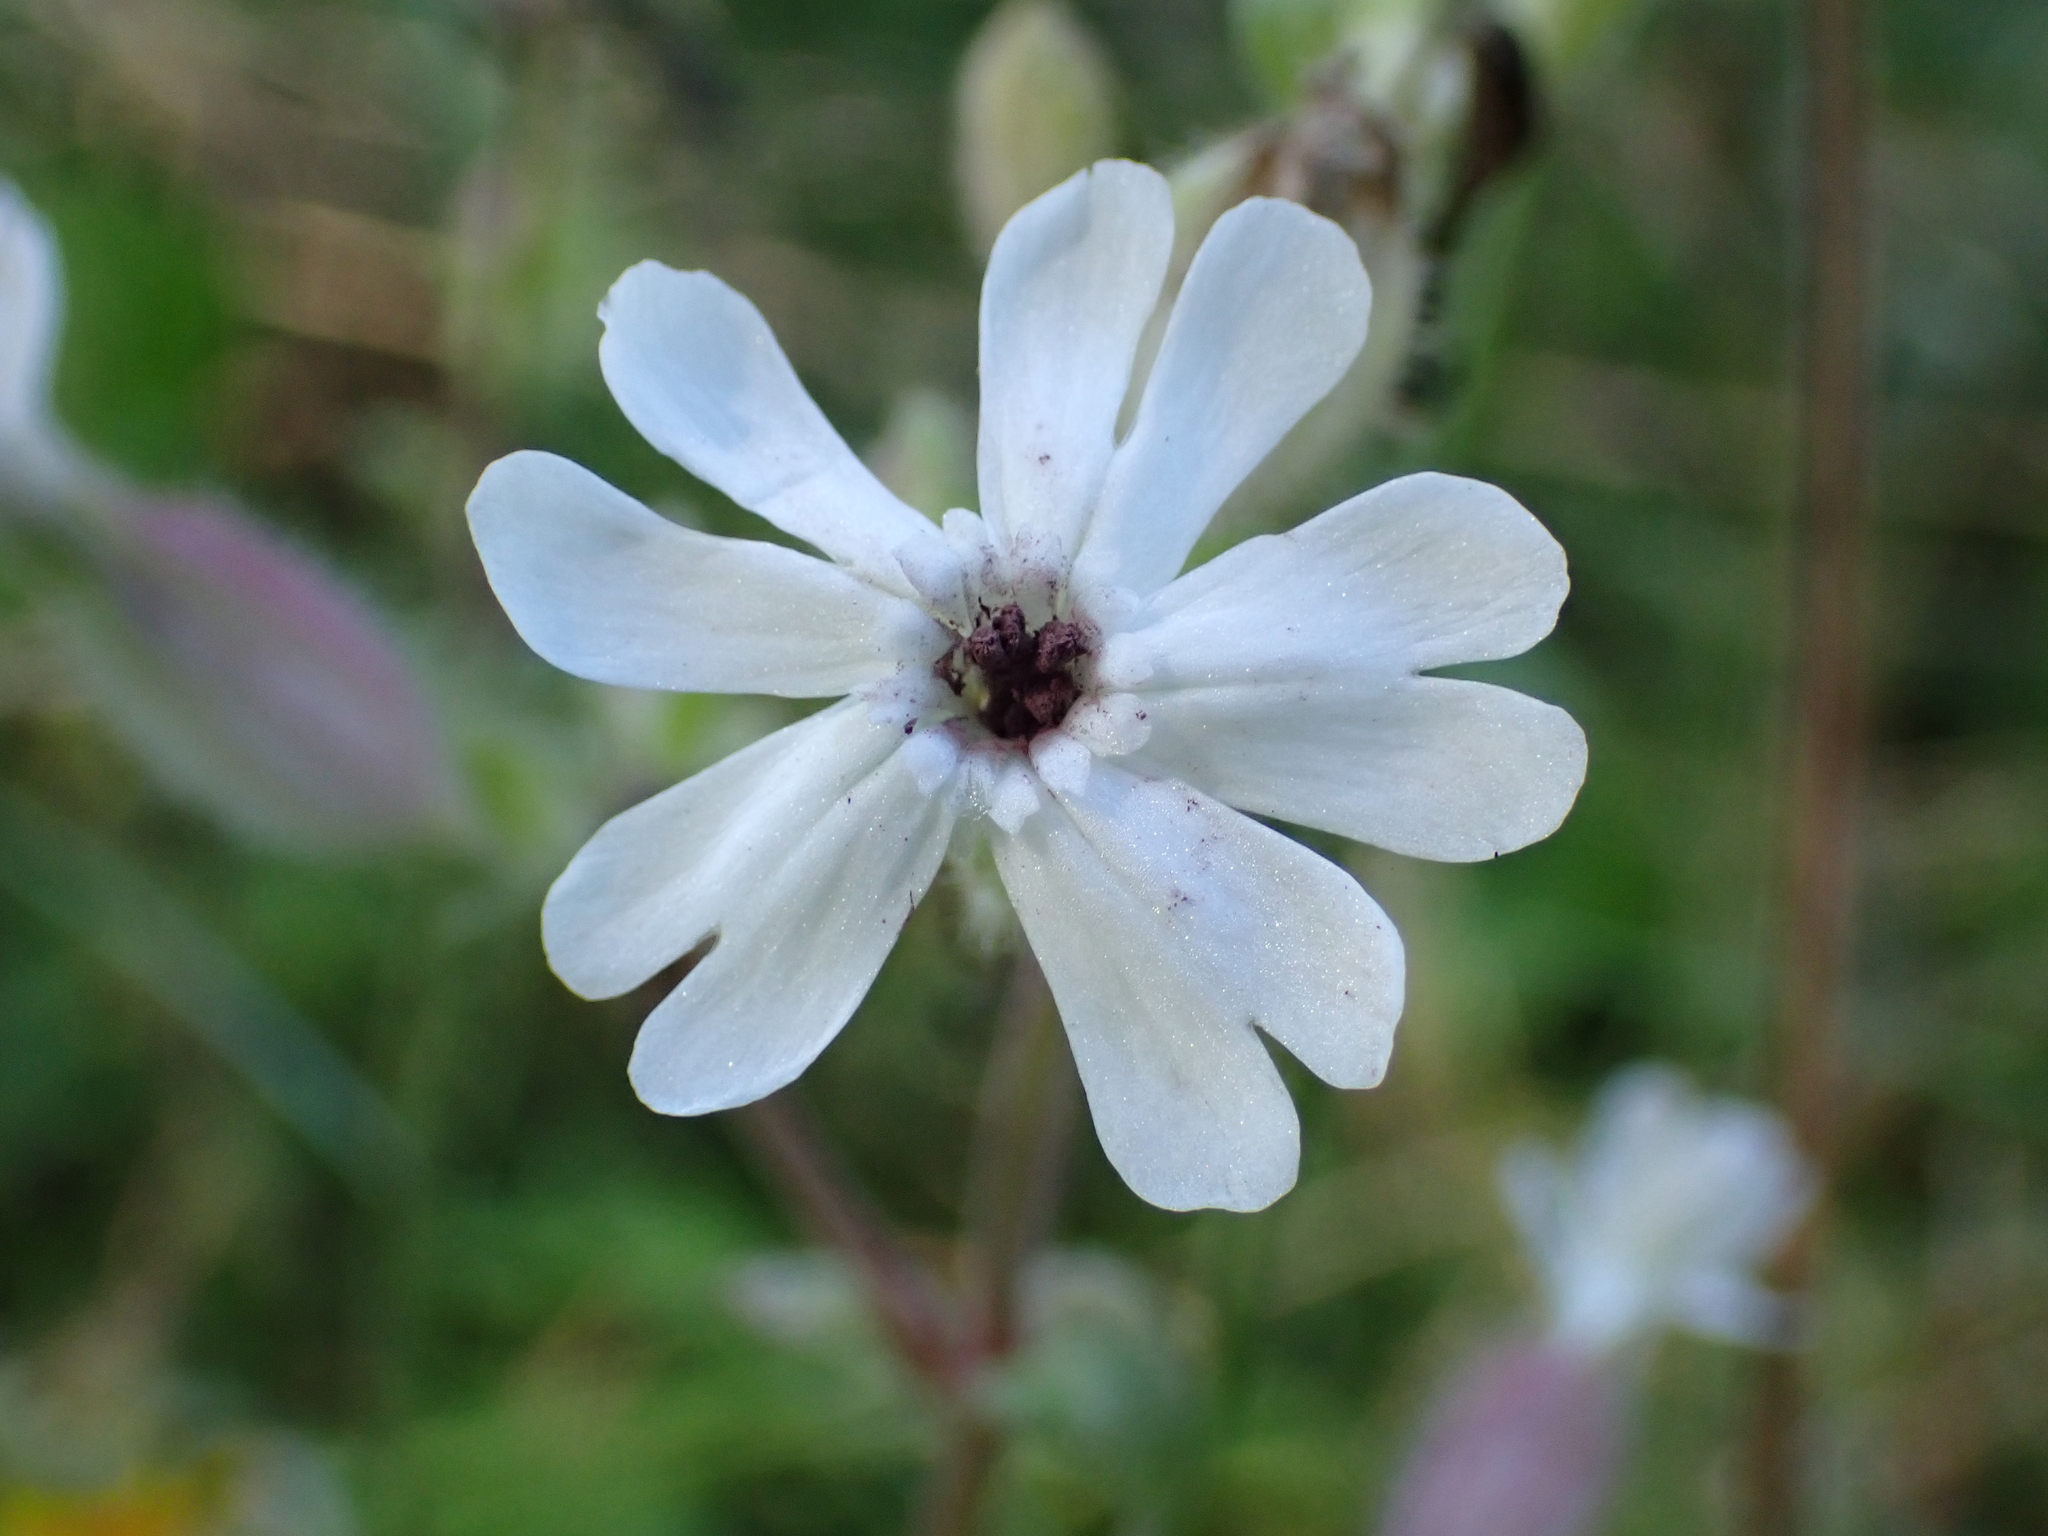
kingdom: Fungi
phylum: Basidiomycota
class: Microbotryomycetes
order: Microbotryales
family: Microbotryaceae
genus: Microbotryum
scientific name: Microbotryum lychnidis-dioicae
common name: Campion anther smut
